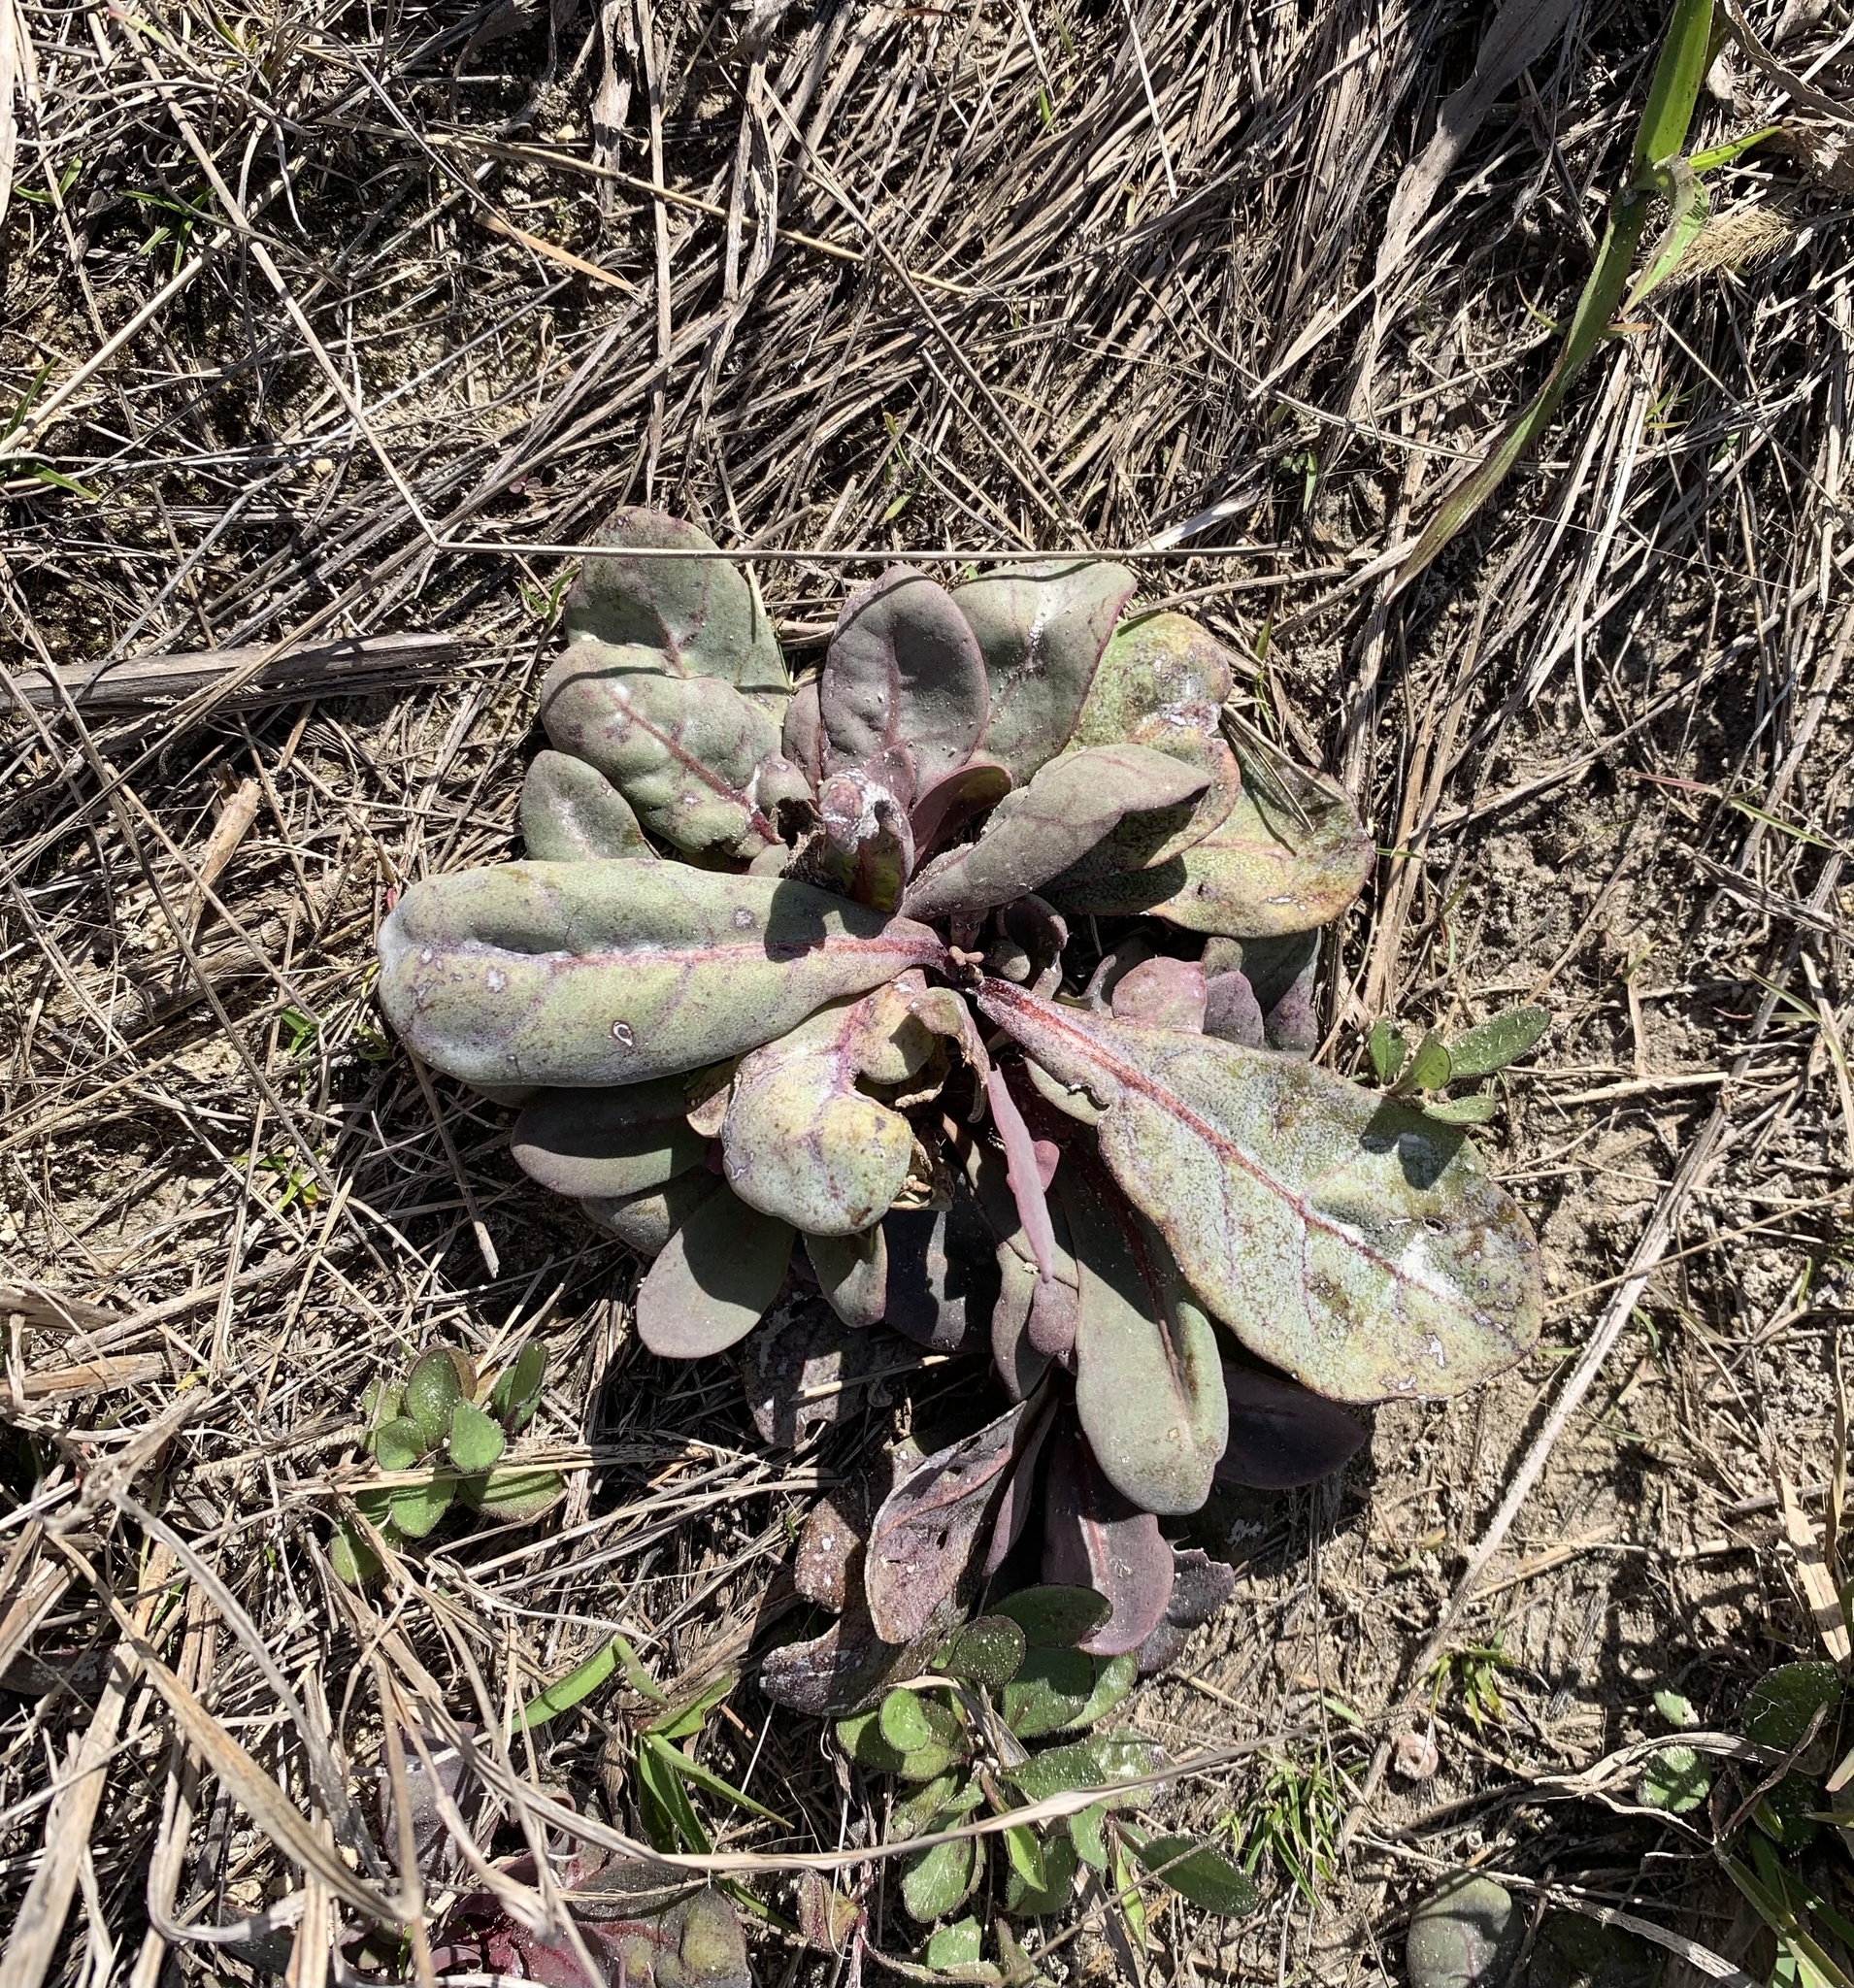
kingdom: Plantae
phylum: Tracheophyta
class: Magnoliopsida
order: Ericales
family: Primulaceae
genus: Samolus
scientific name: Samolus ebracteatus
